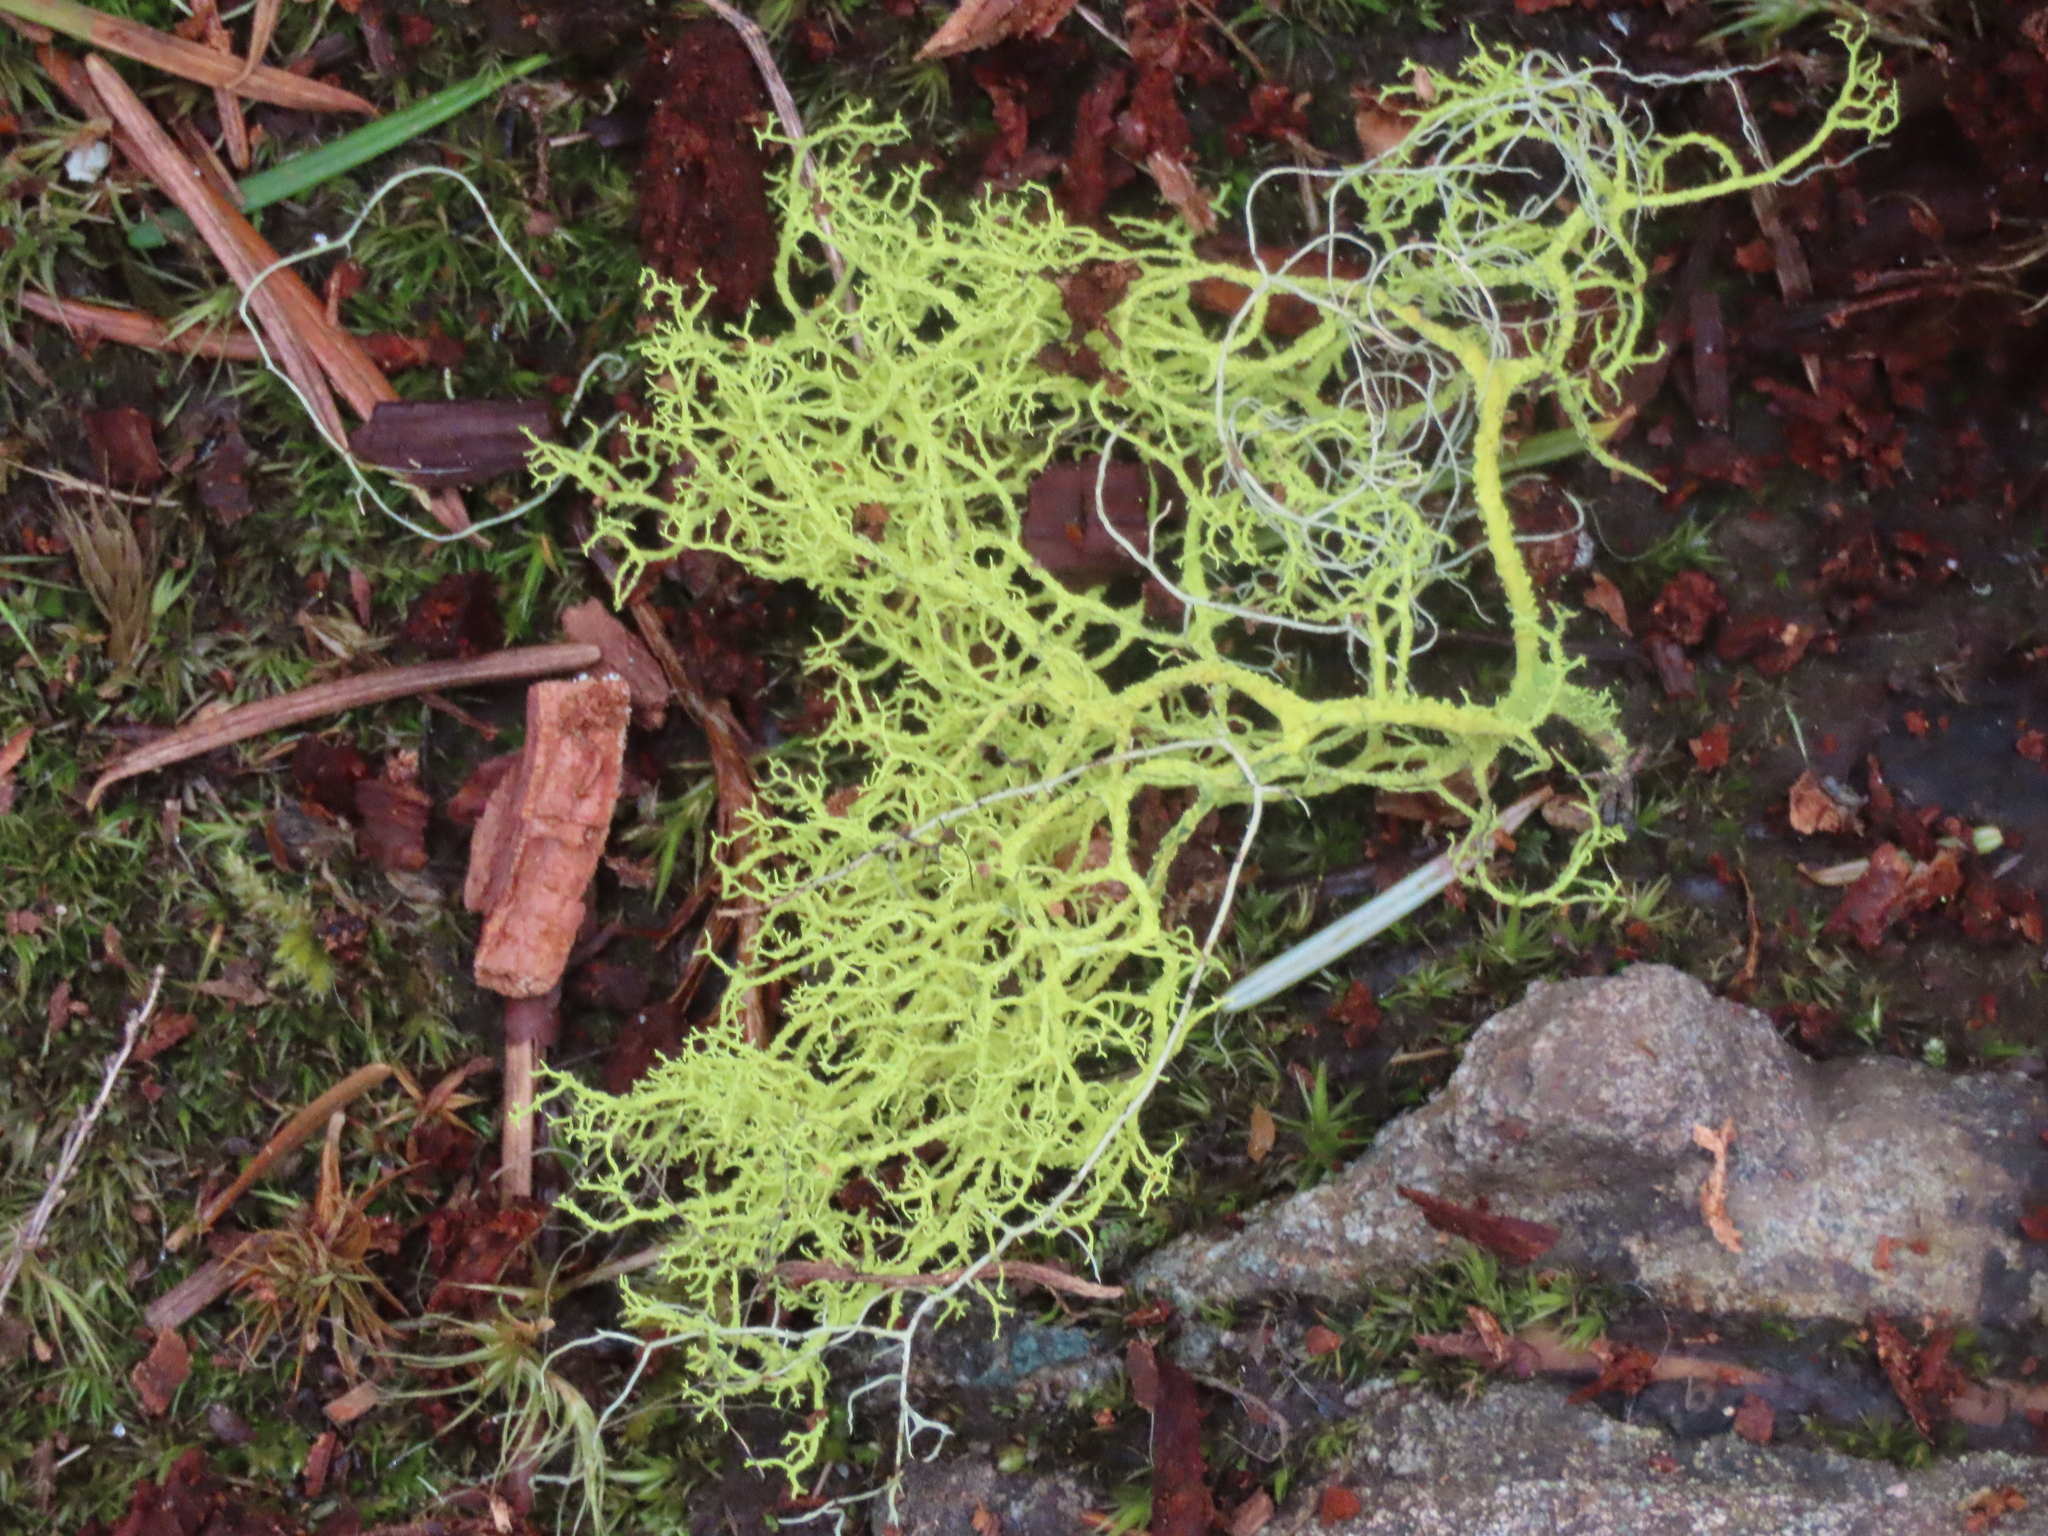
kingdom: Fungi
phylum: Ascomycota
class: Lecanoromycetes
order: Lecanorales
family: Parmeliaceae
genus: Letharia
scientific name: Letharia vulpina
